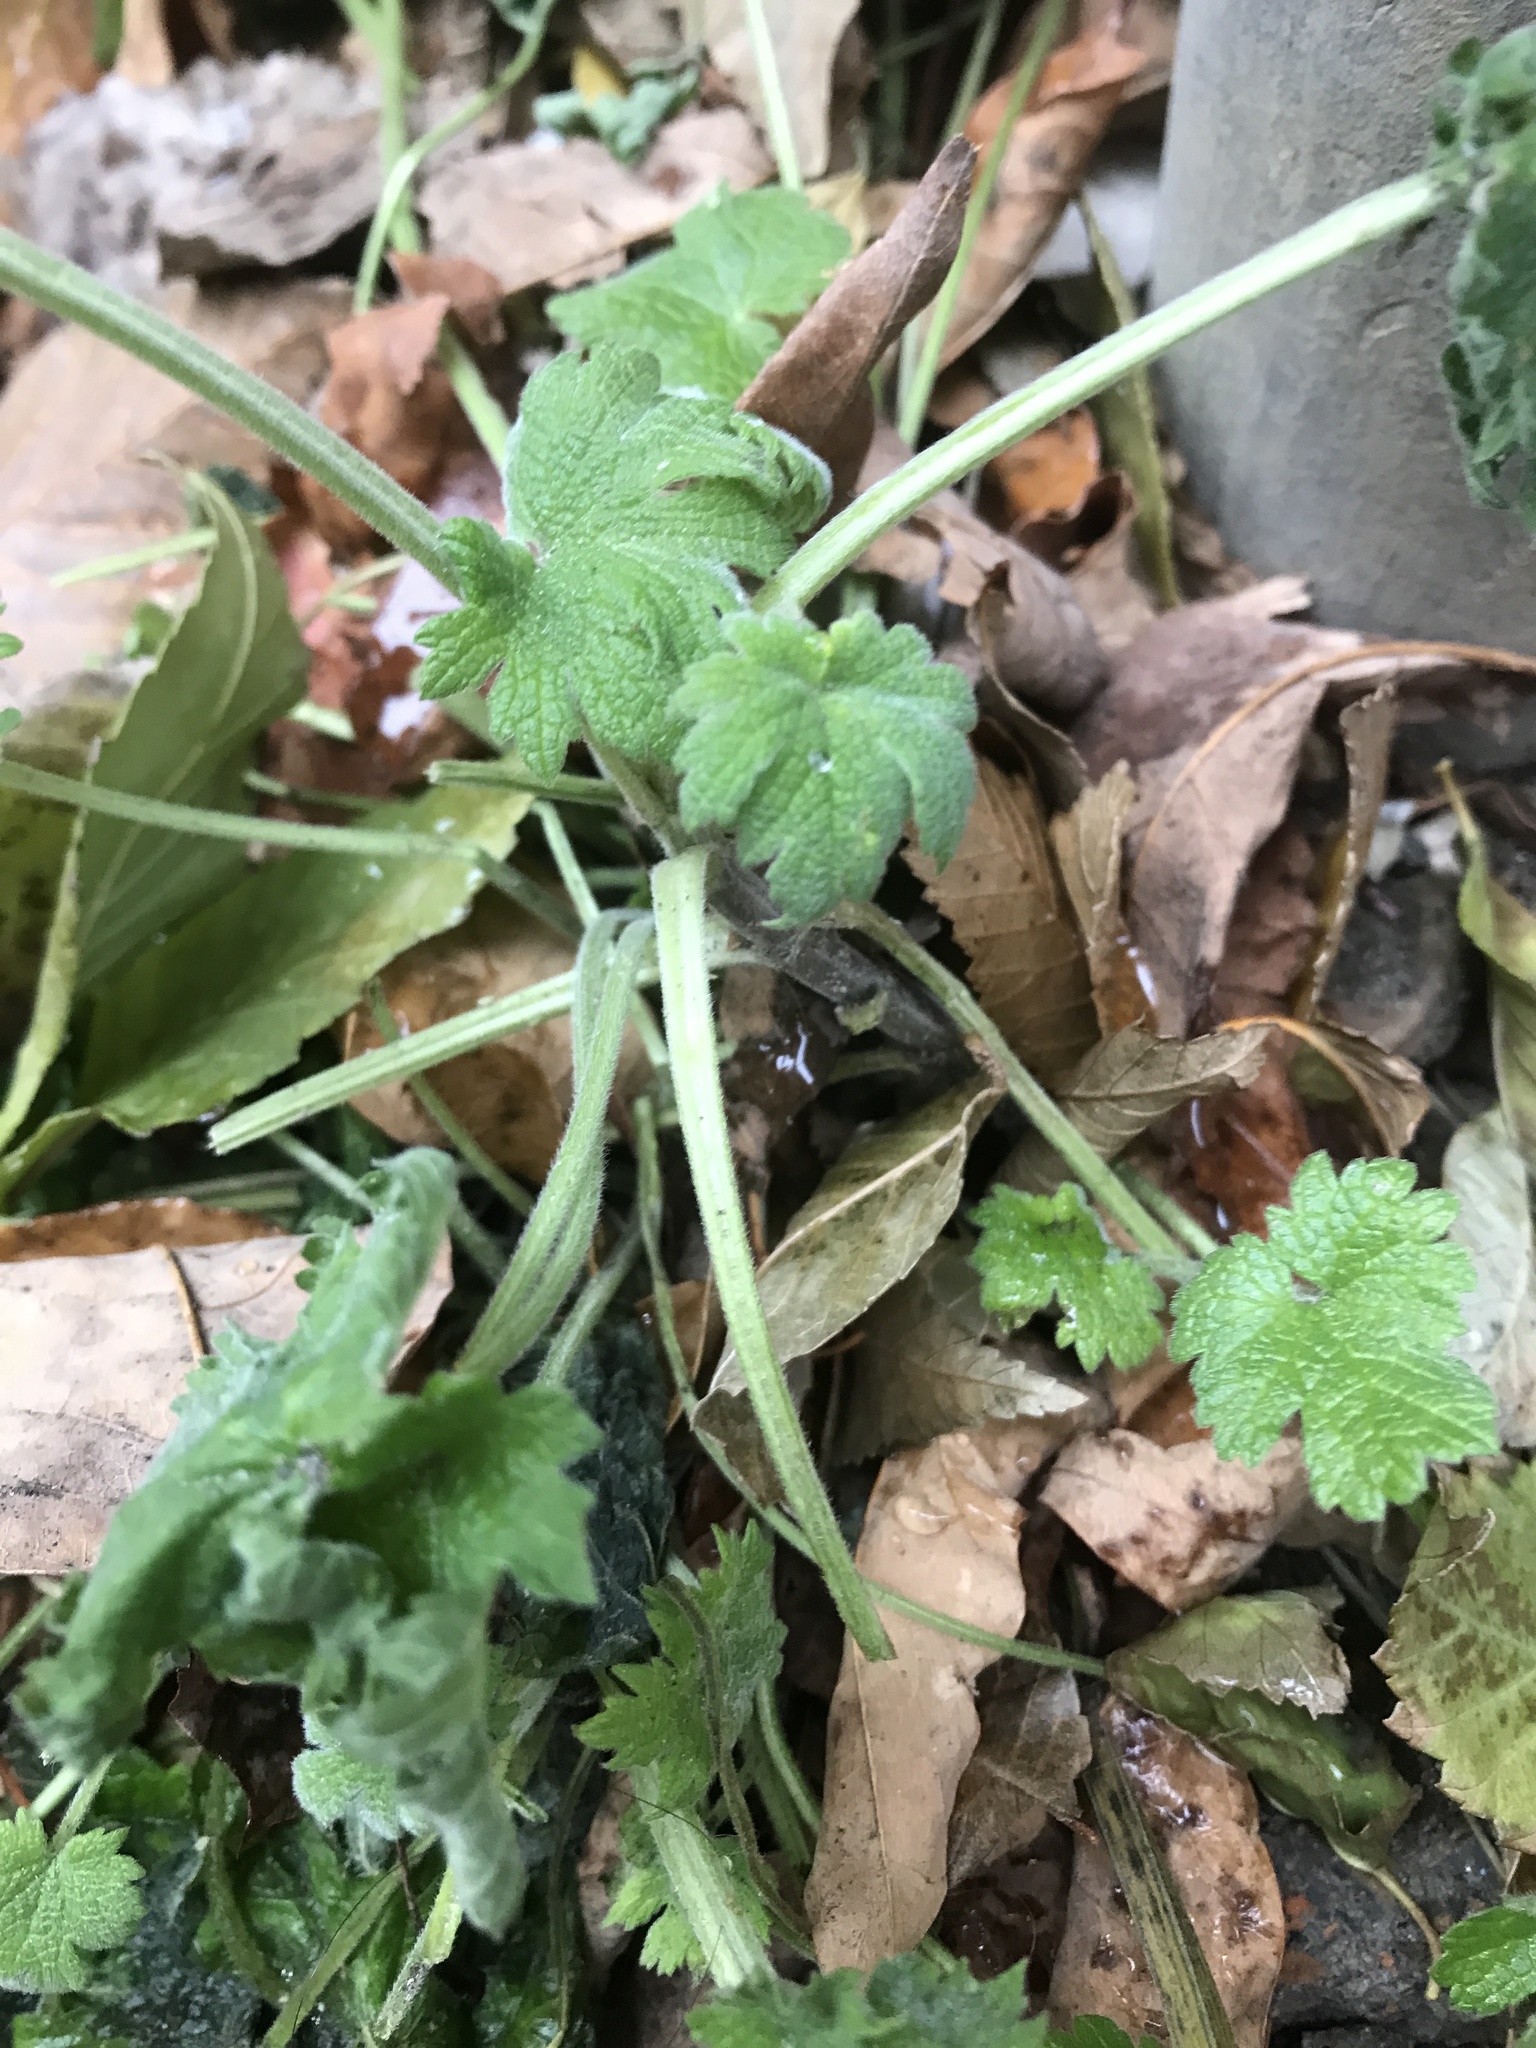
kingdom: Plantae
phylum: Tracheophyta
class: Magnoliopsida
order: Lamiales
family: Lamiaceae
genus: Leonurus
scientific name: Leonurus cardiaca
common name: Motherwort
